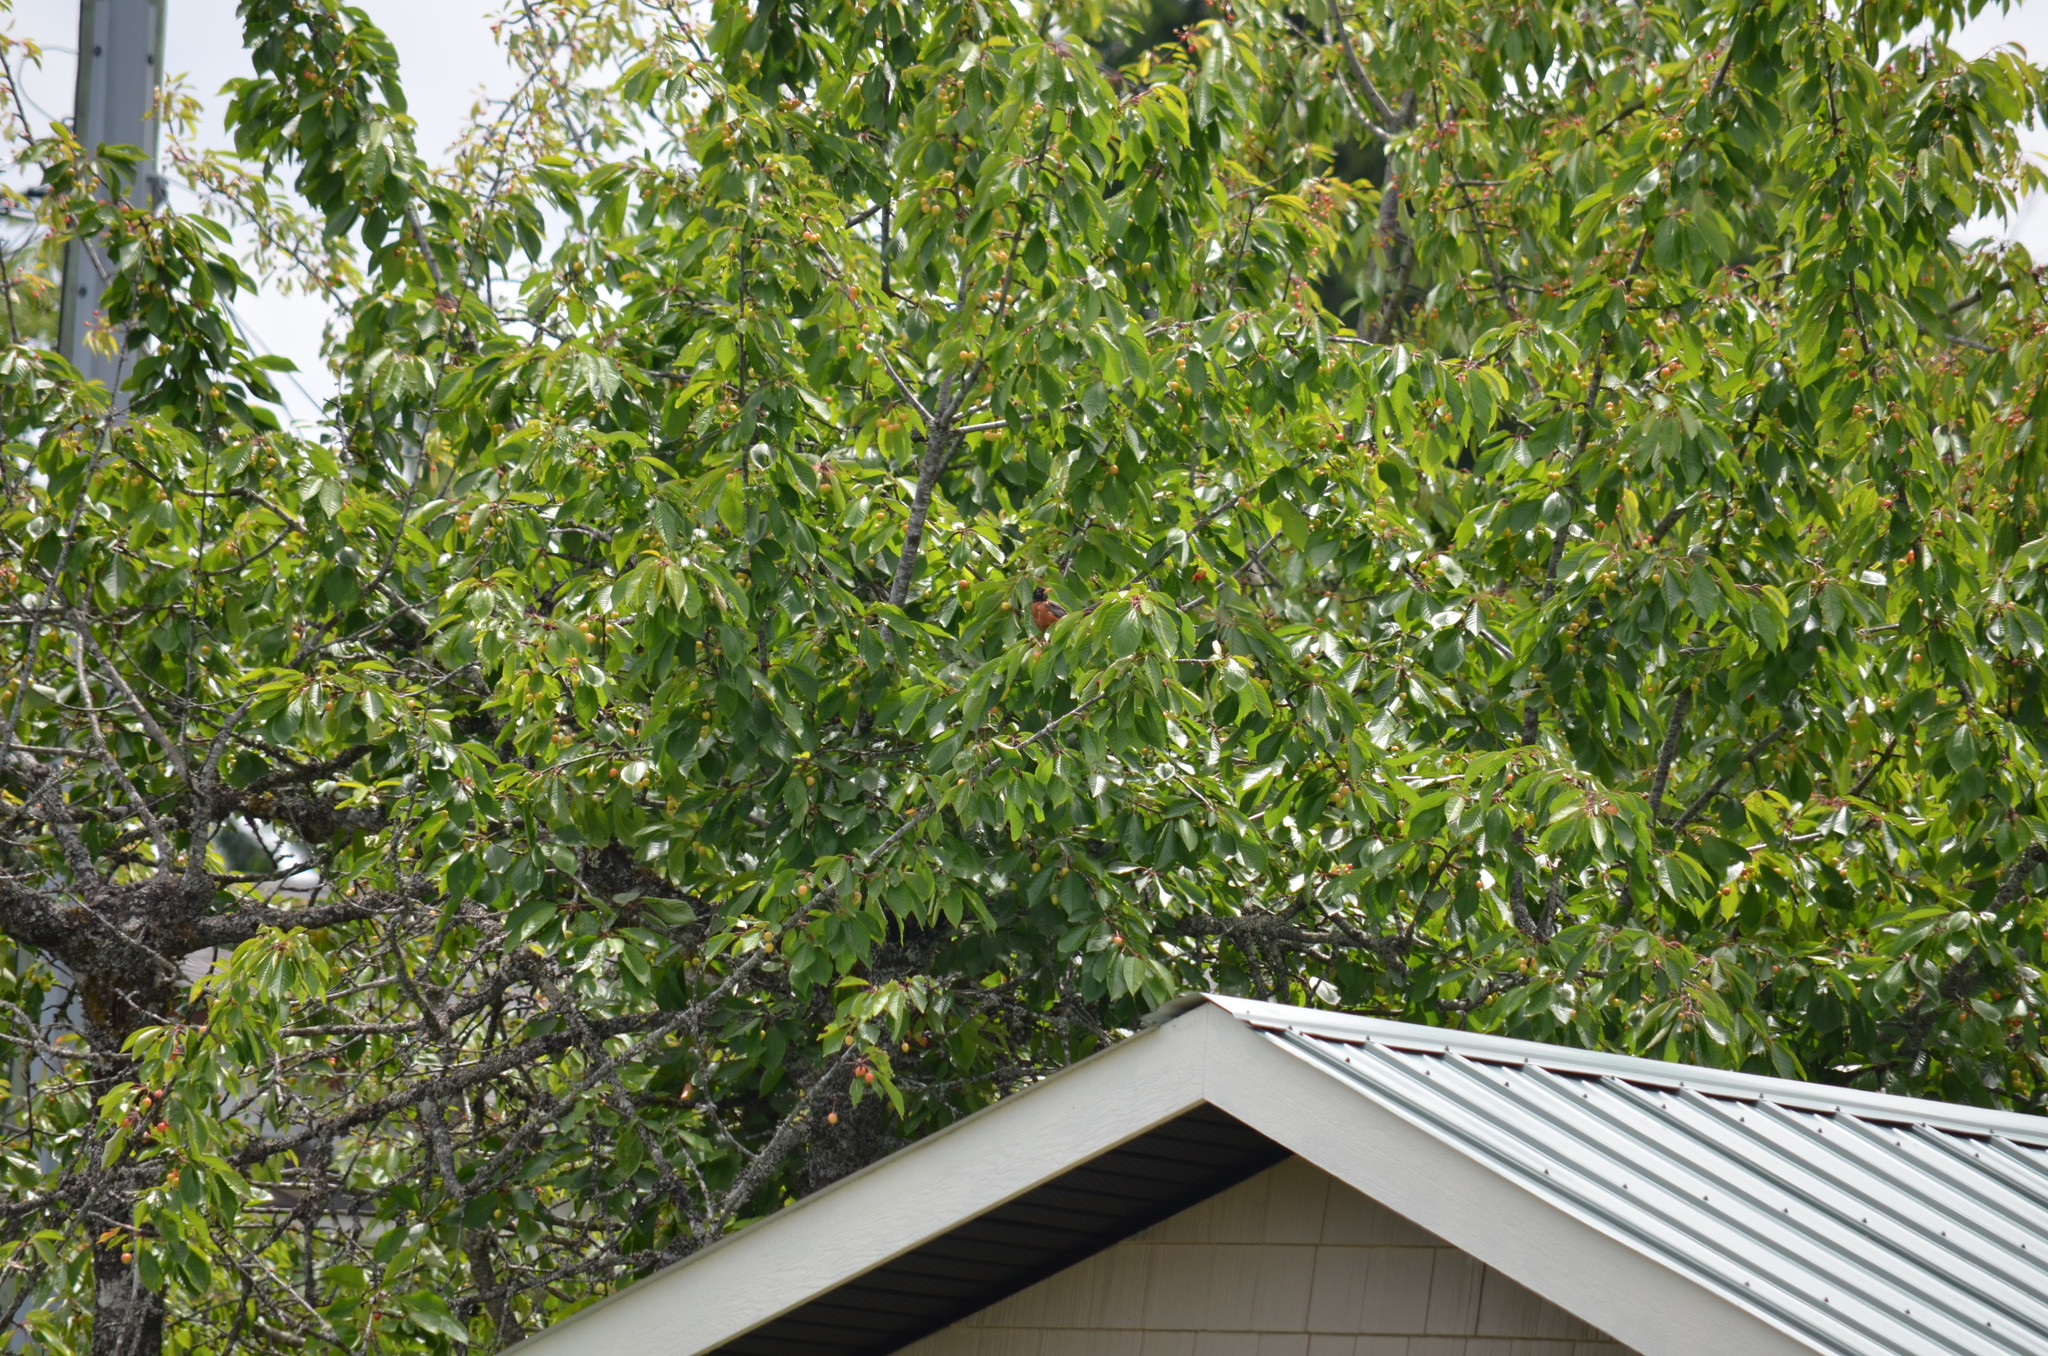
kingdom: Animalia
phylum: Chordata
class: Aves
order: Passeriformes
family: Turdidae
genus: Turdus
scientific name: Turdus migratorius
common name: American robin
